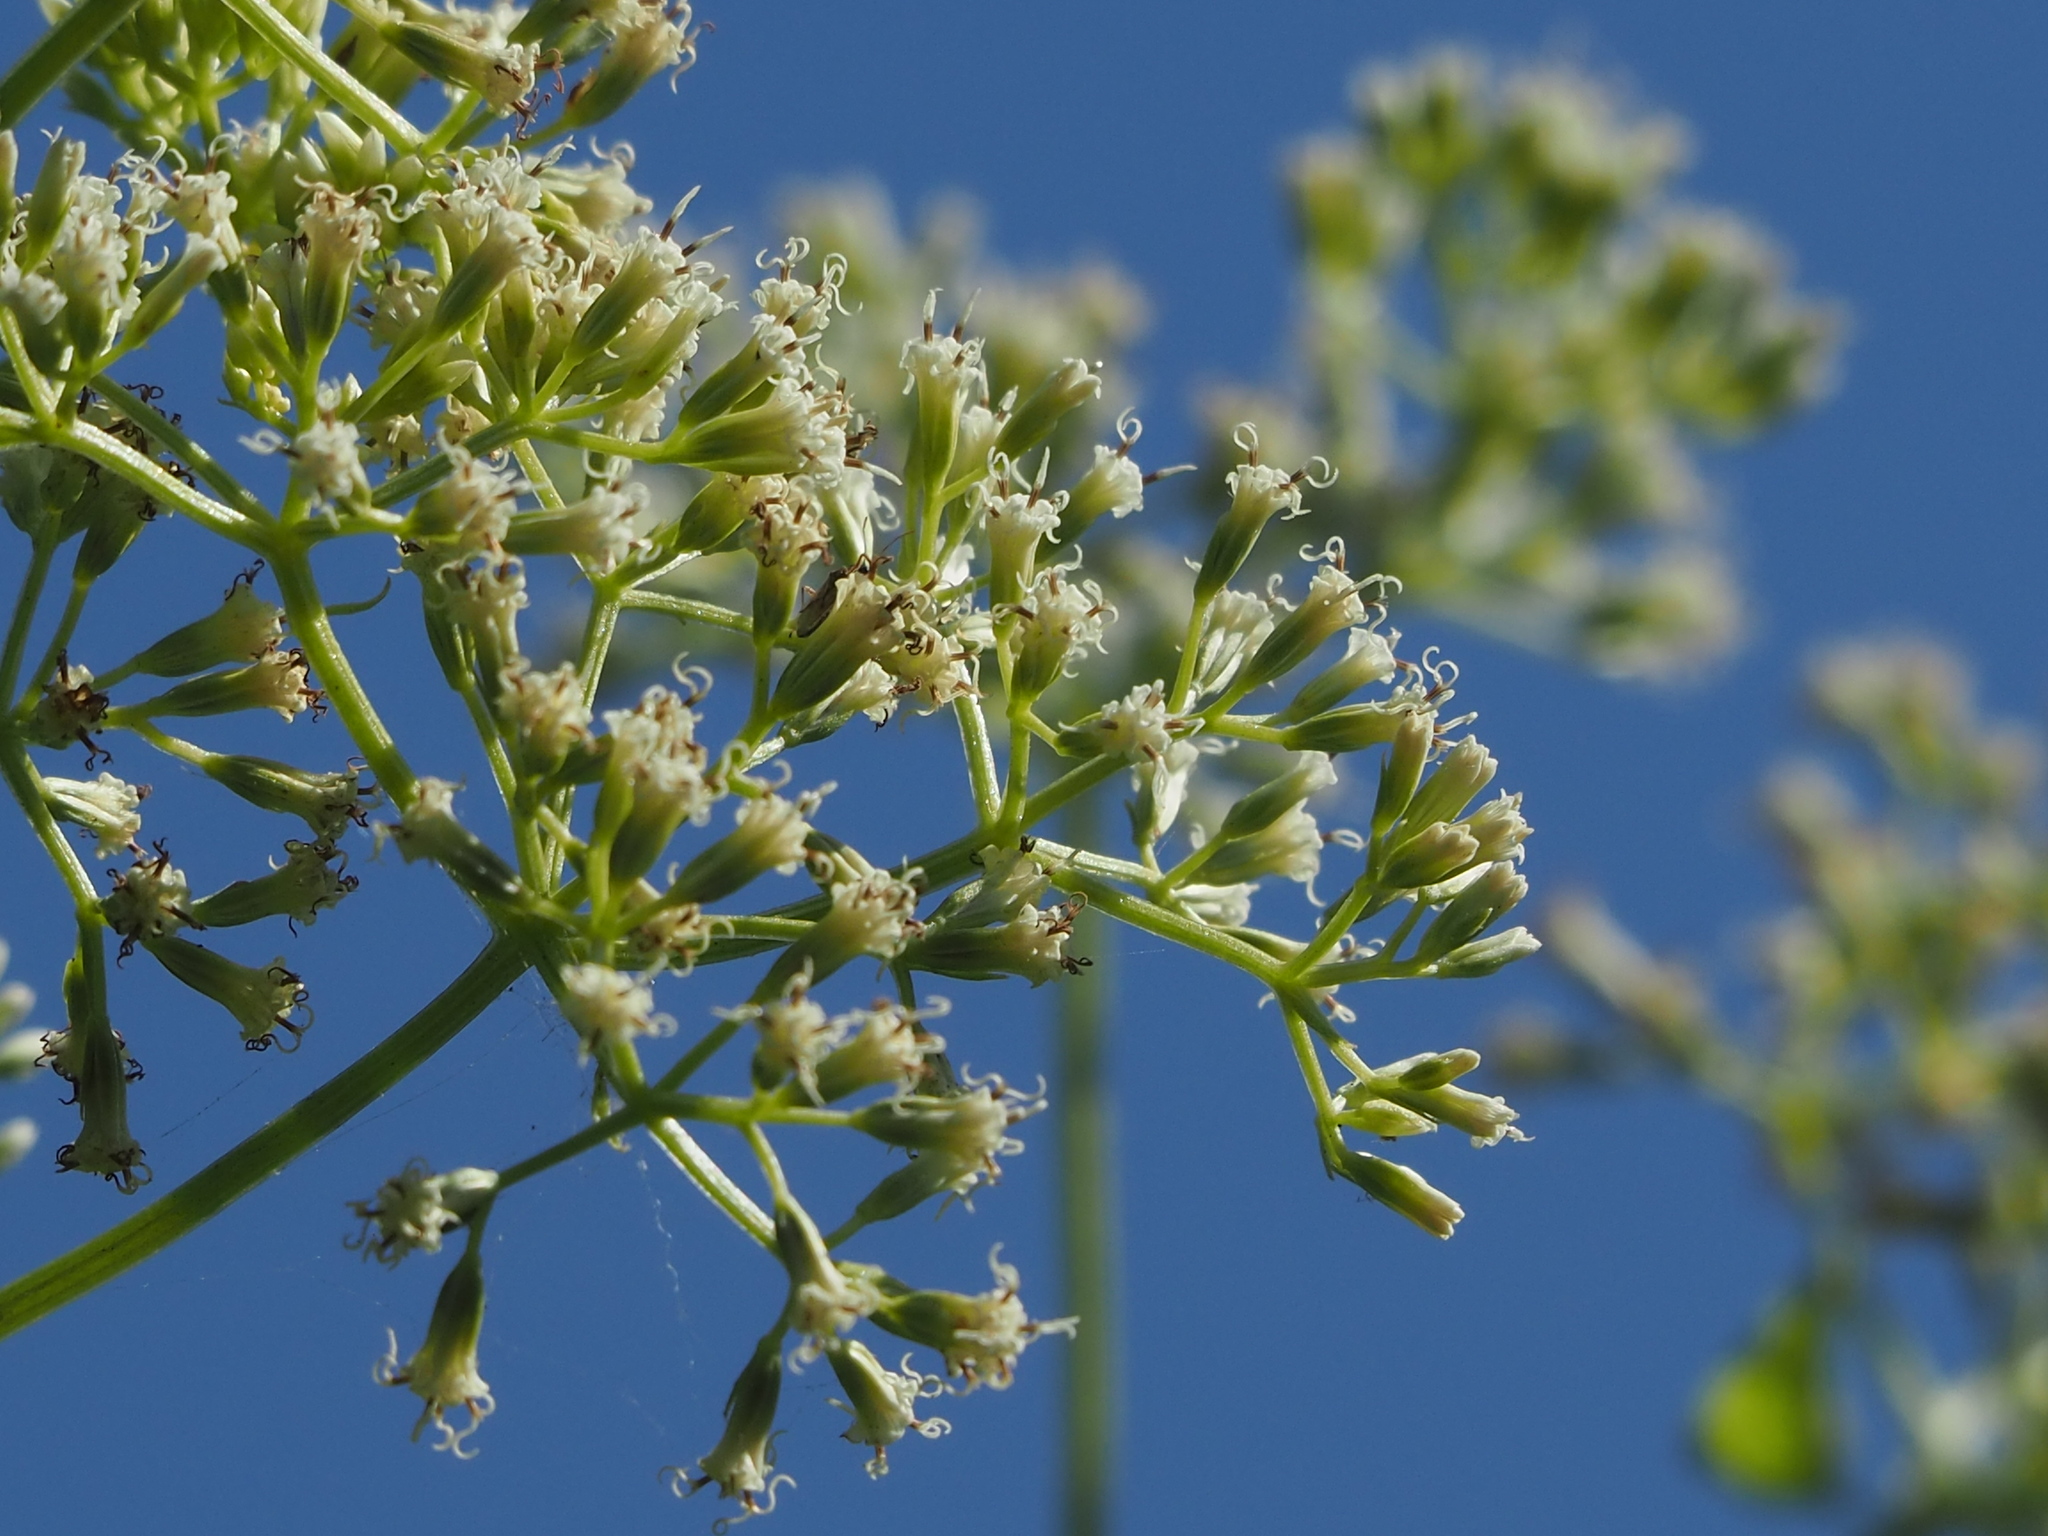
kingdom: Plantae
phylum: Tracheophyta
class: Magnoliopsida
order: Asterales
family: Asteraceae
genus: Mikania
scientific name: Mikania micrantha
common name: Mile-a-minute
